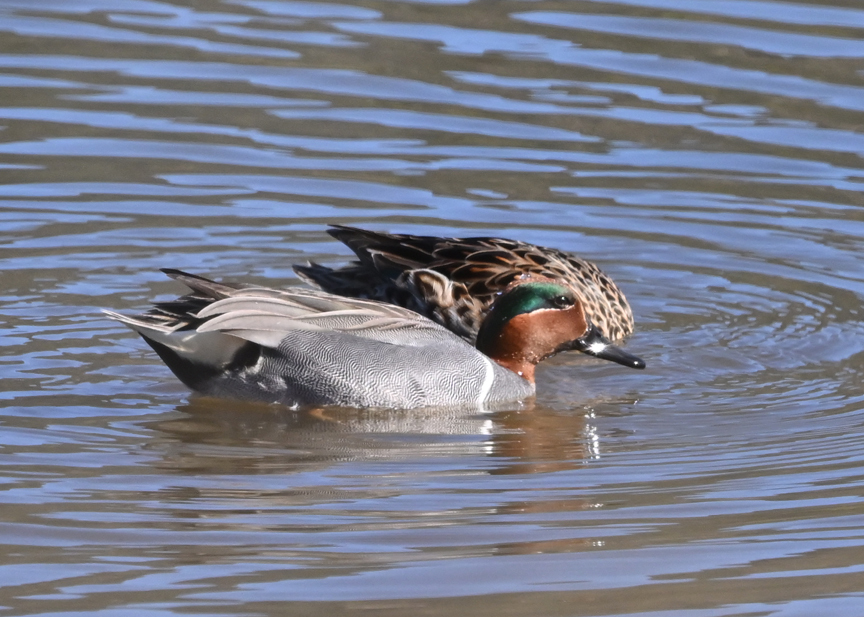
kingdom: Animalia
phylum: Chordata
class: Aves
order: Anseriformes
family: Anatidae
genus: Anas
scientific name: Anas crecca
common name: Eurasian teal
